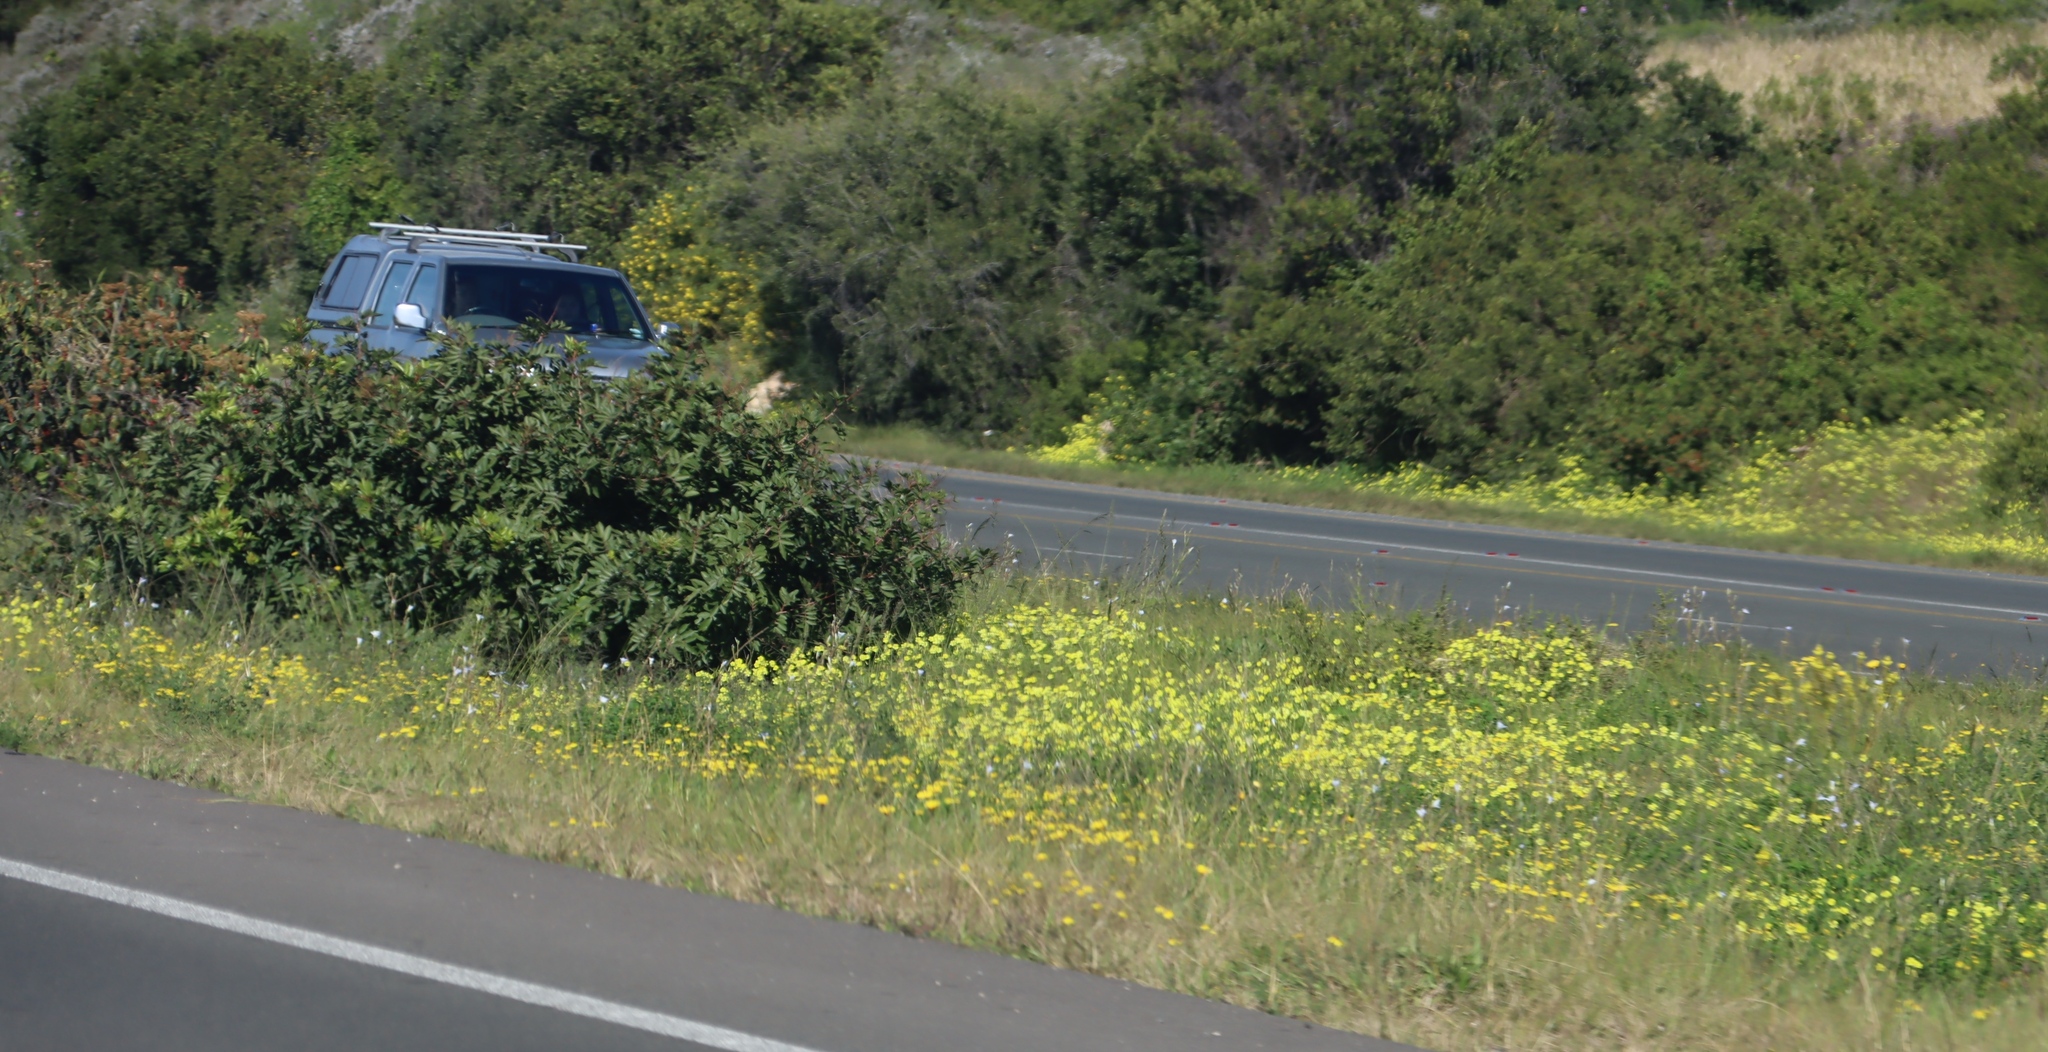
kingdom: Plantae
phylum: Tracheophyta
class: Magnoliopsida
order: Oxalidales
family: Oxalidaceae
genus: Oxalis
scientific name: Oxalis pes-caprae
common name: Bermuda-buttercup
